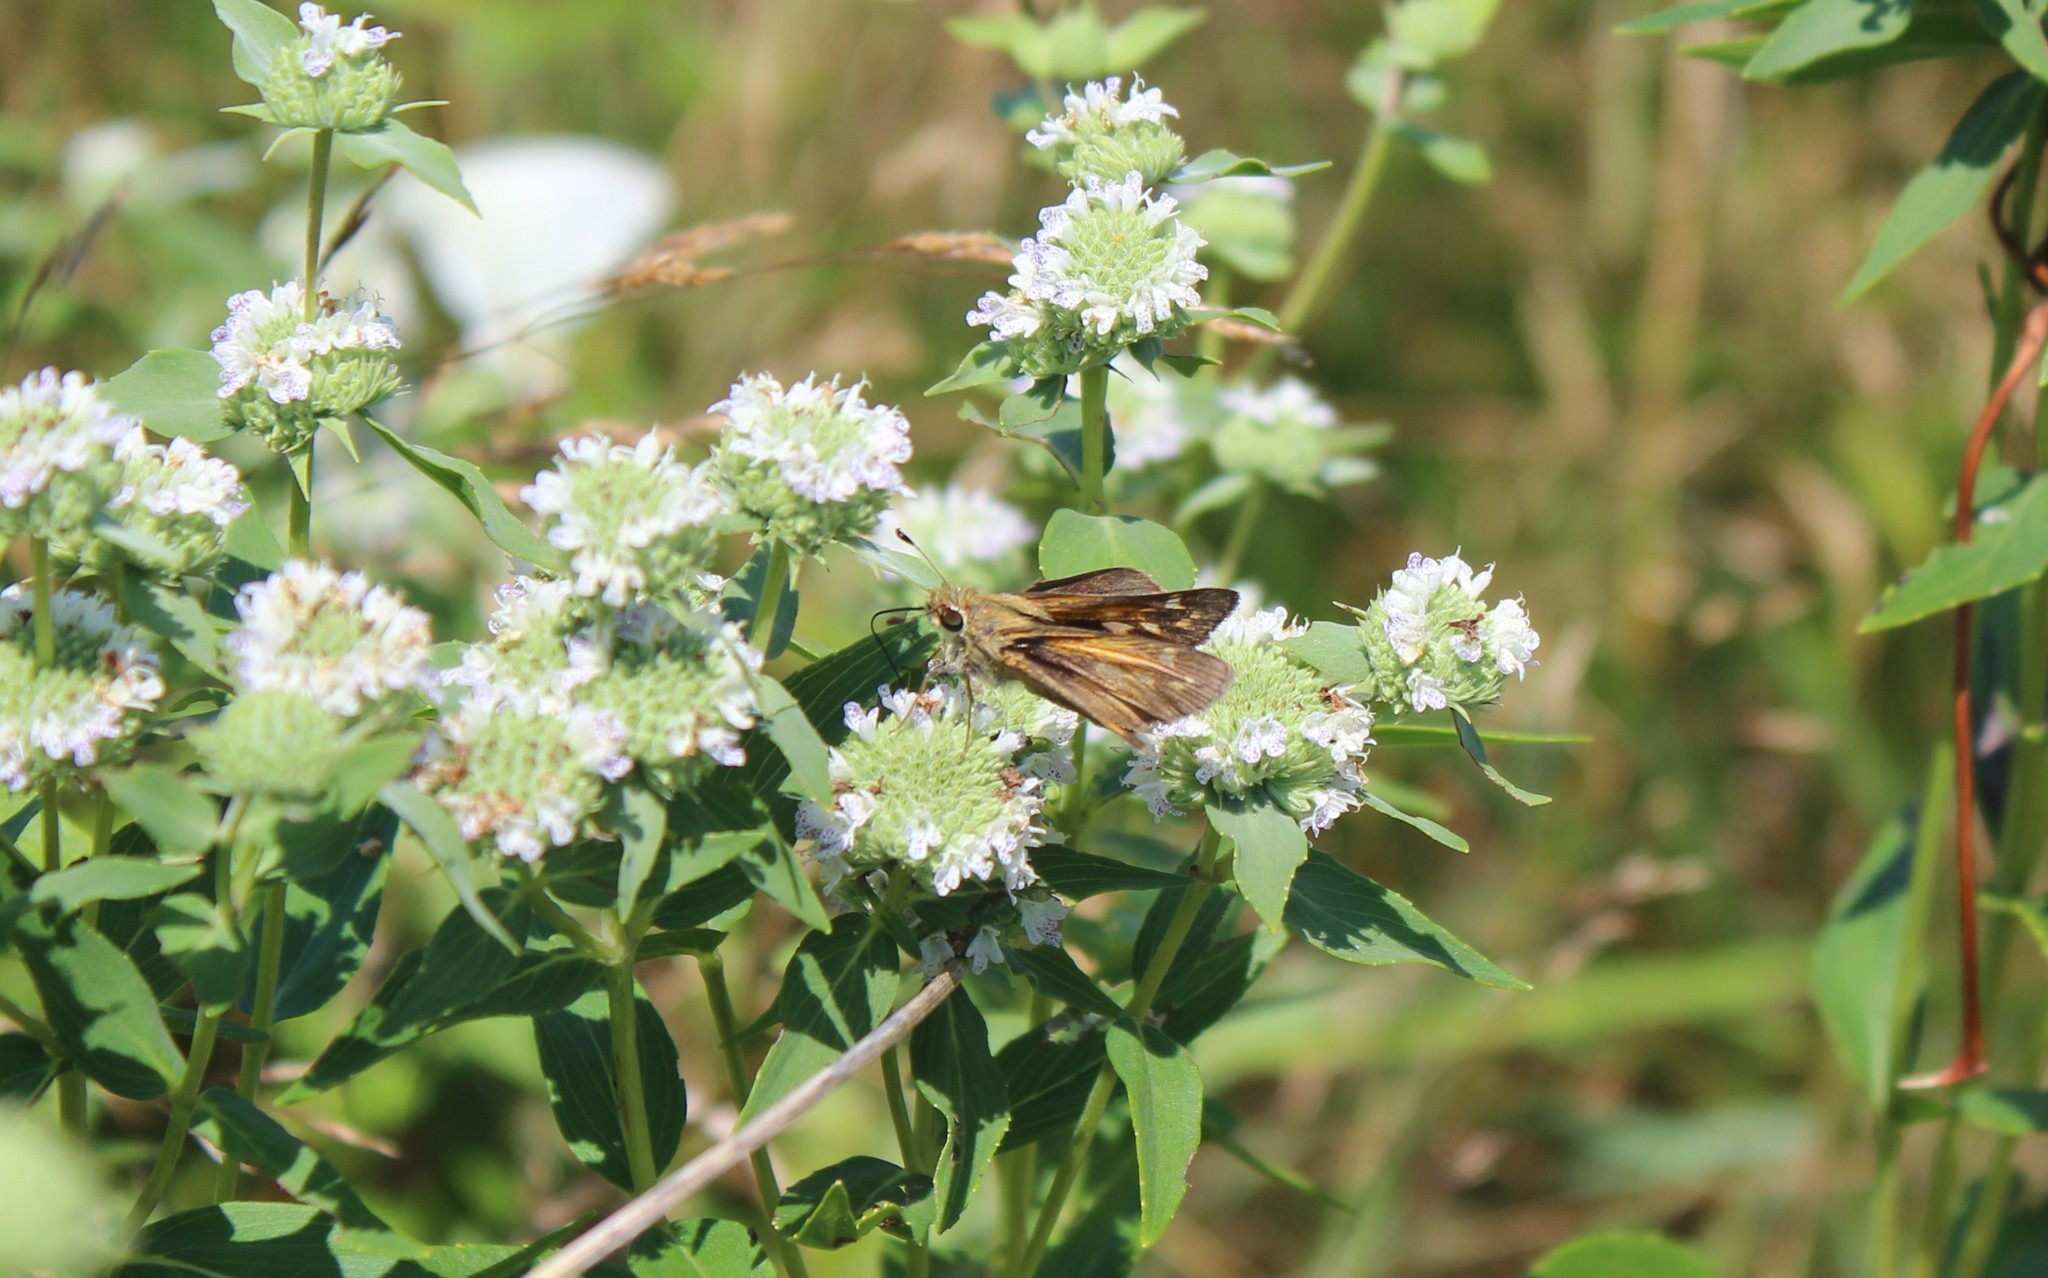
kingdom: Animalia
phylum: Arthropoda
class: Insecta
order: Lepidoptera
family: Hesperiidae
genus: Atalopedes
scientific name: Atalopedes
